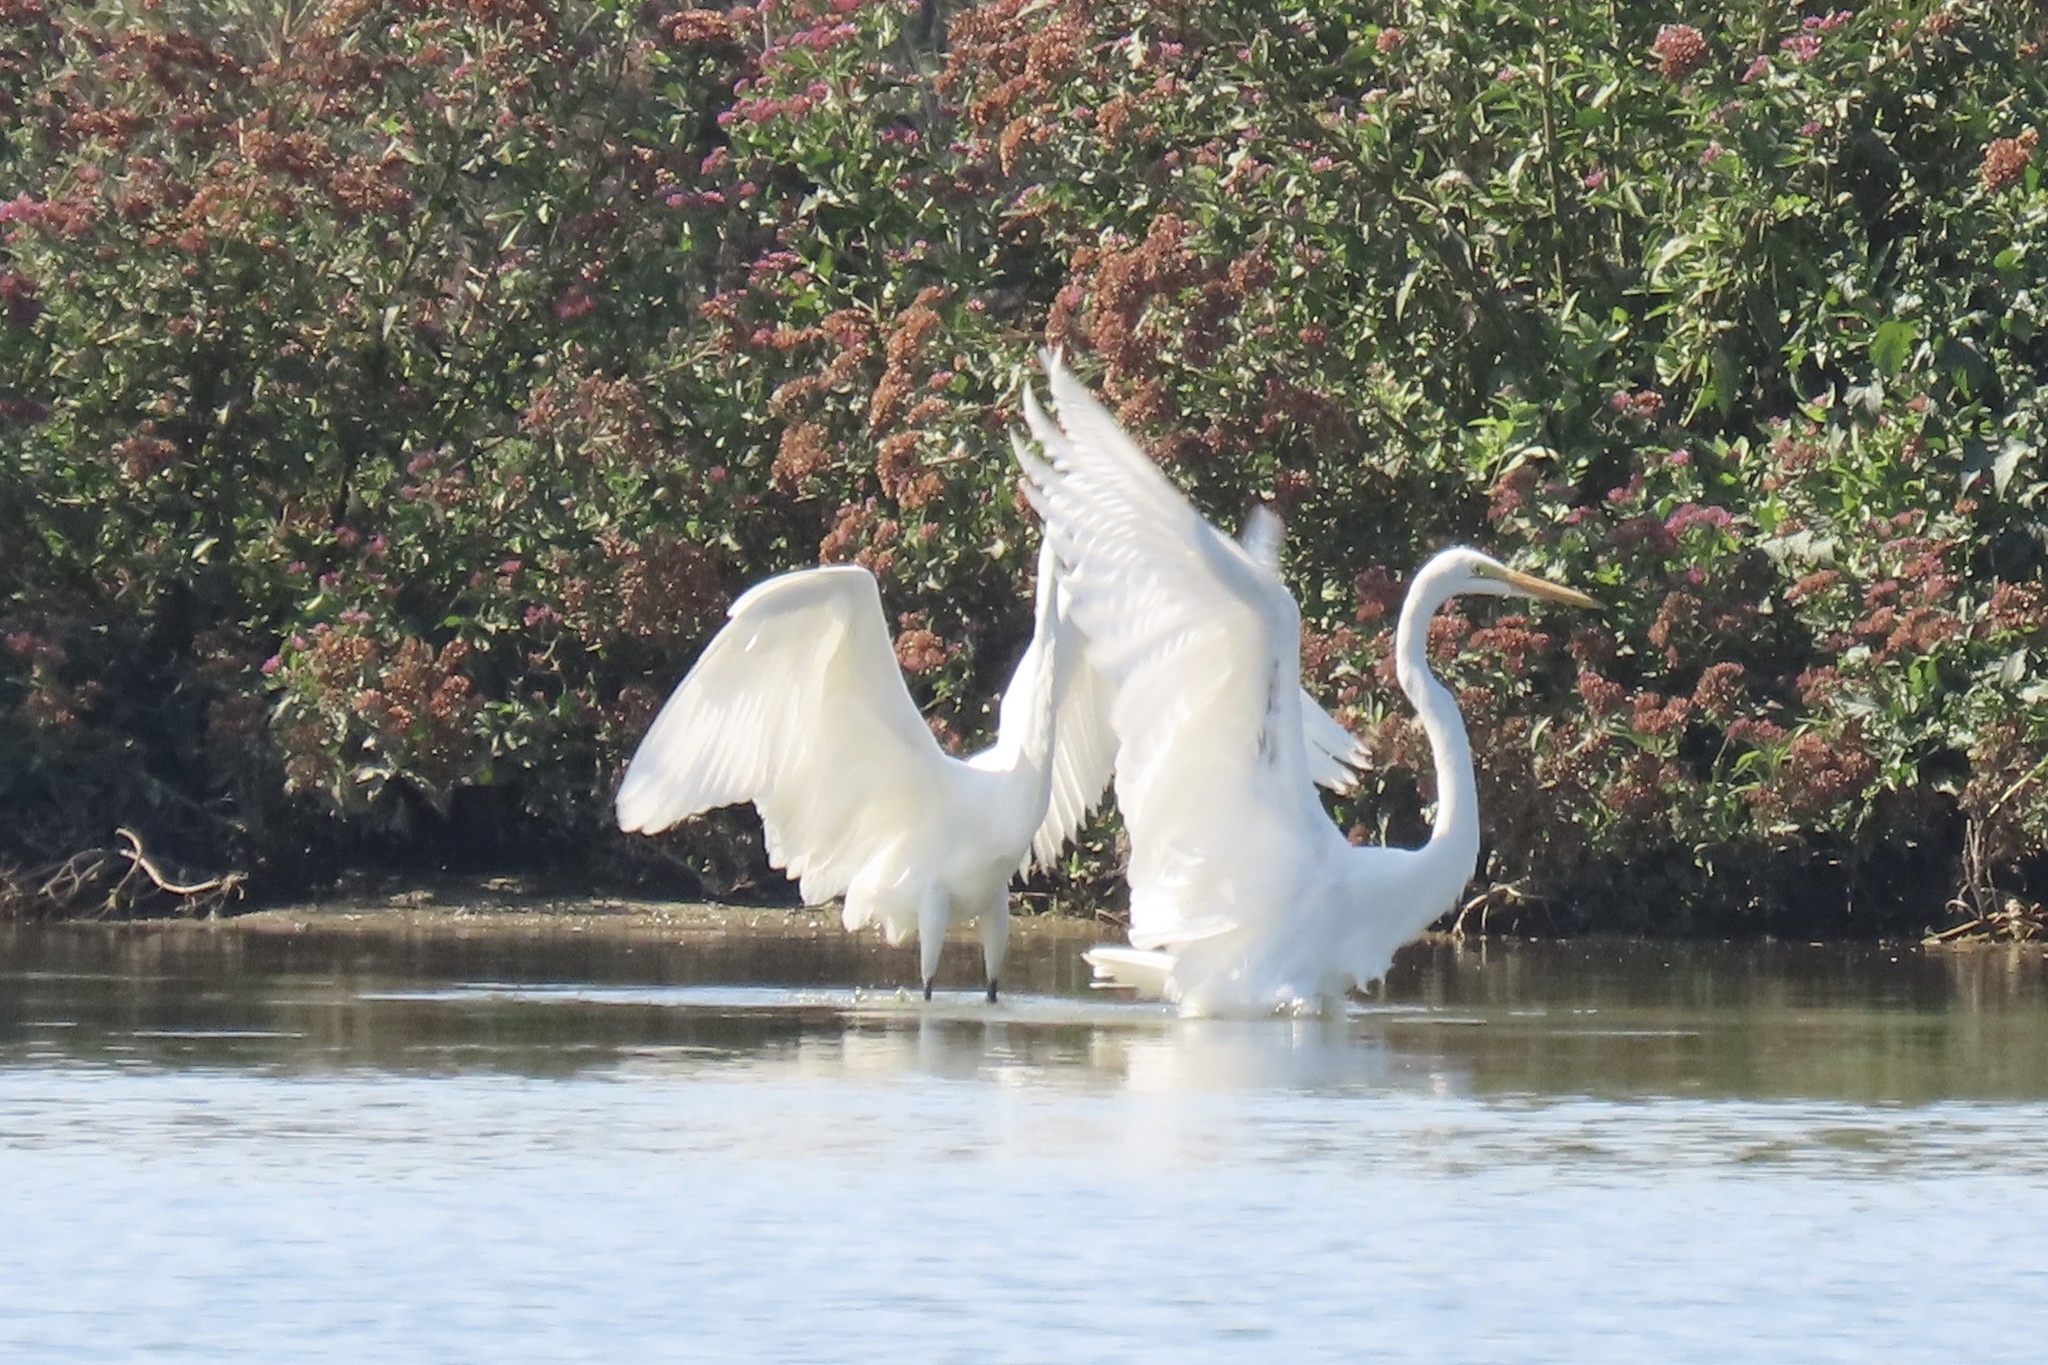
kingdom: Animalia
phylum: Chordata
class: Aves
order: Pelecaniformes
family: Ardeidae
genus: Ardea
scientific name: Ardea alba
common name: Great egret
